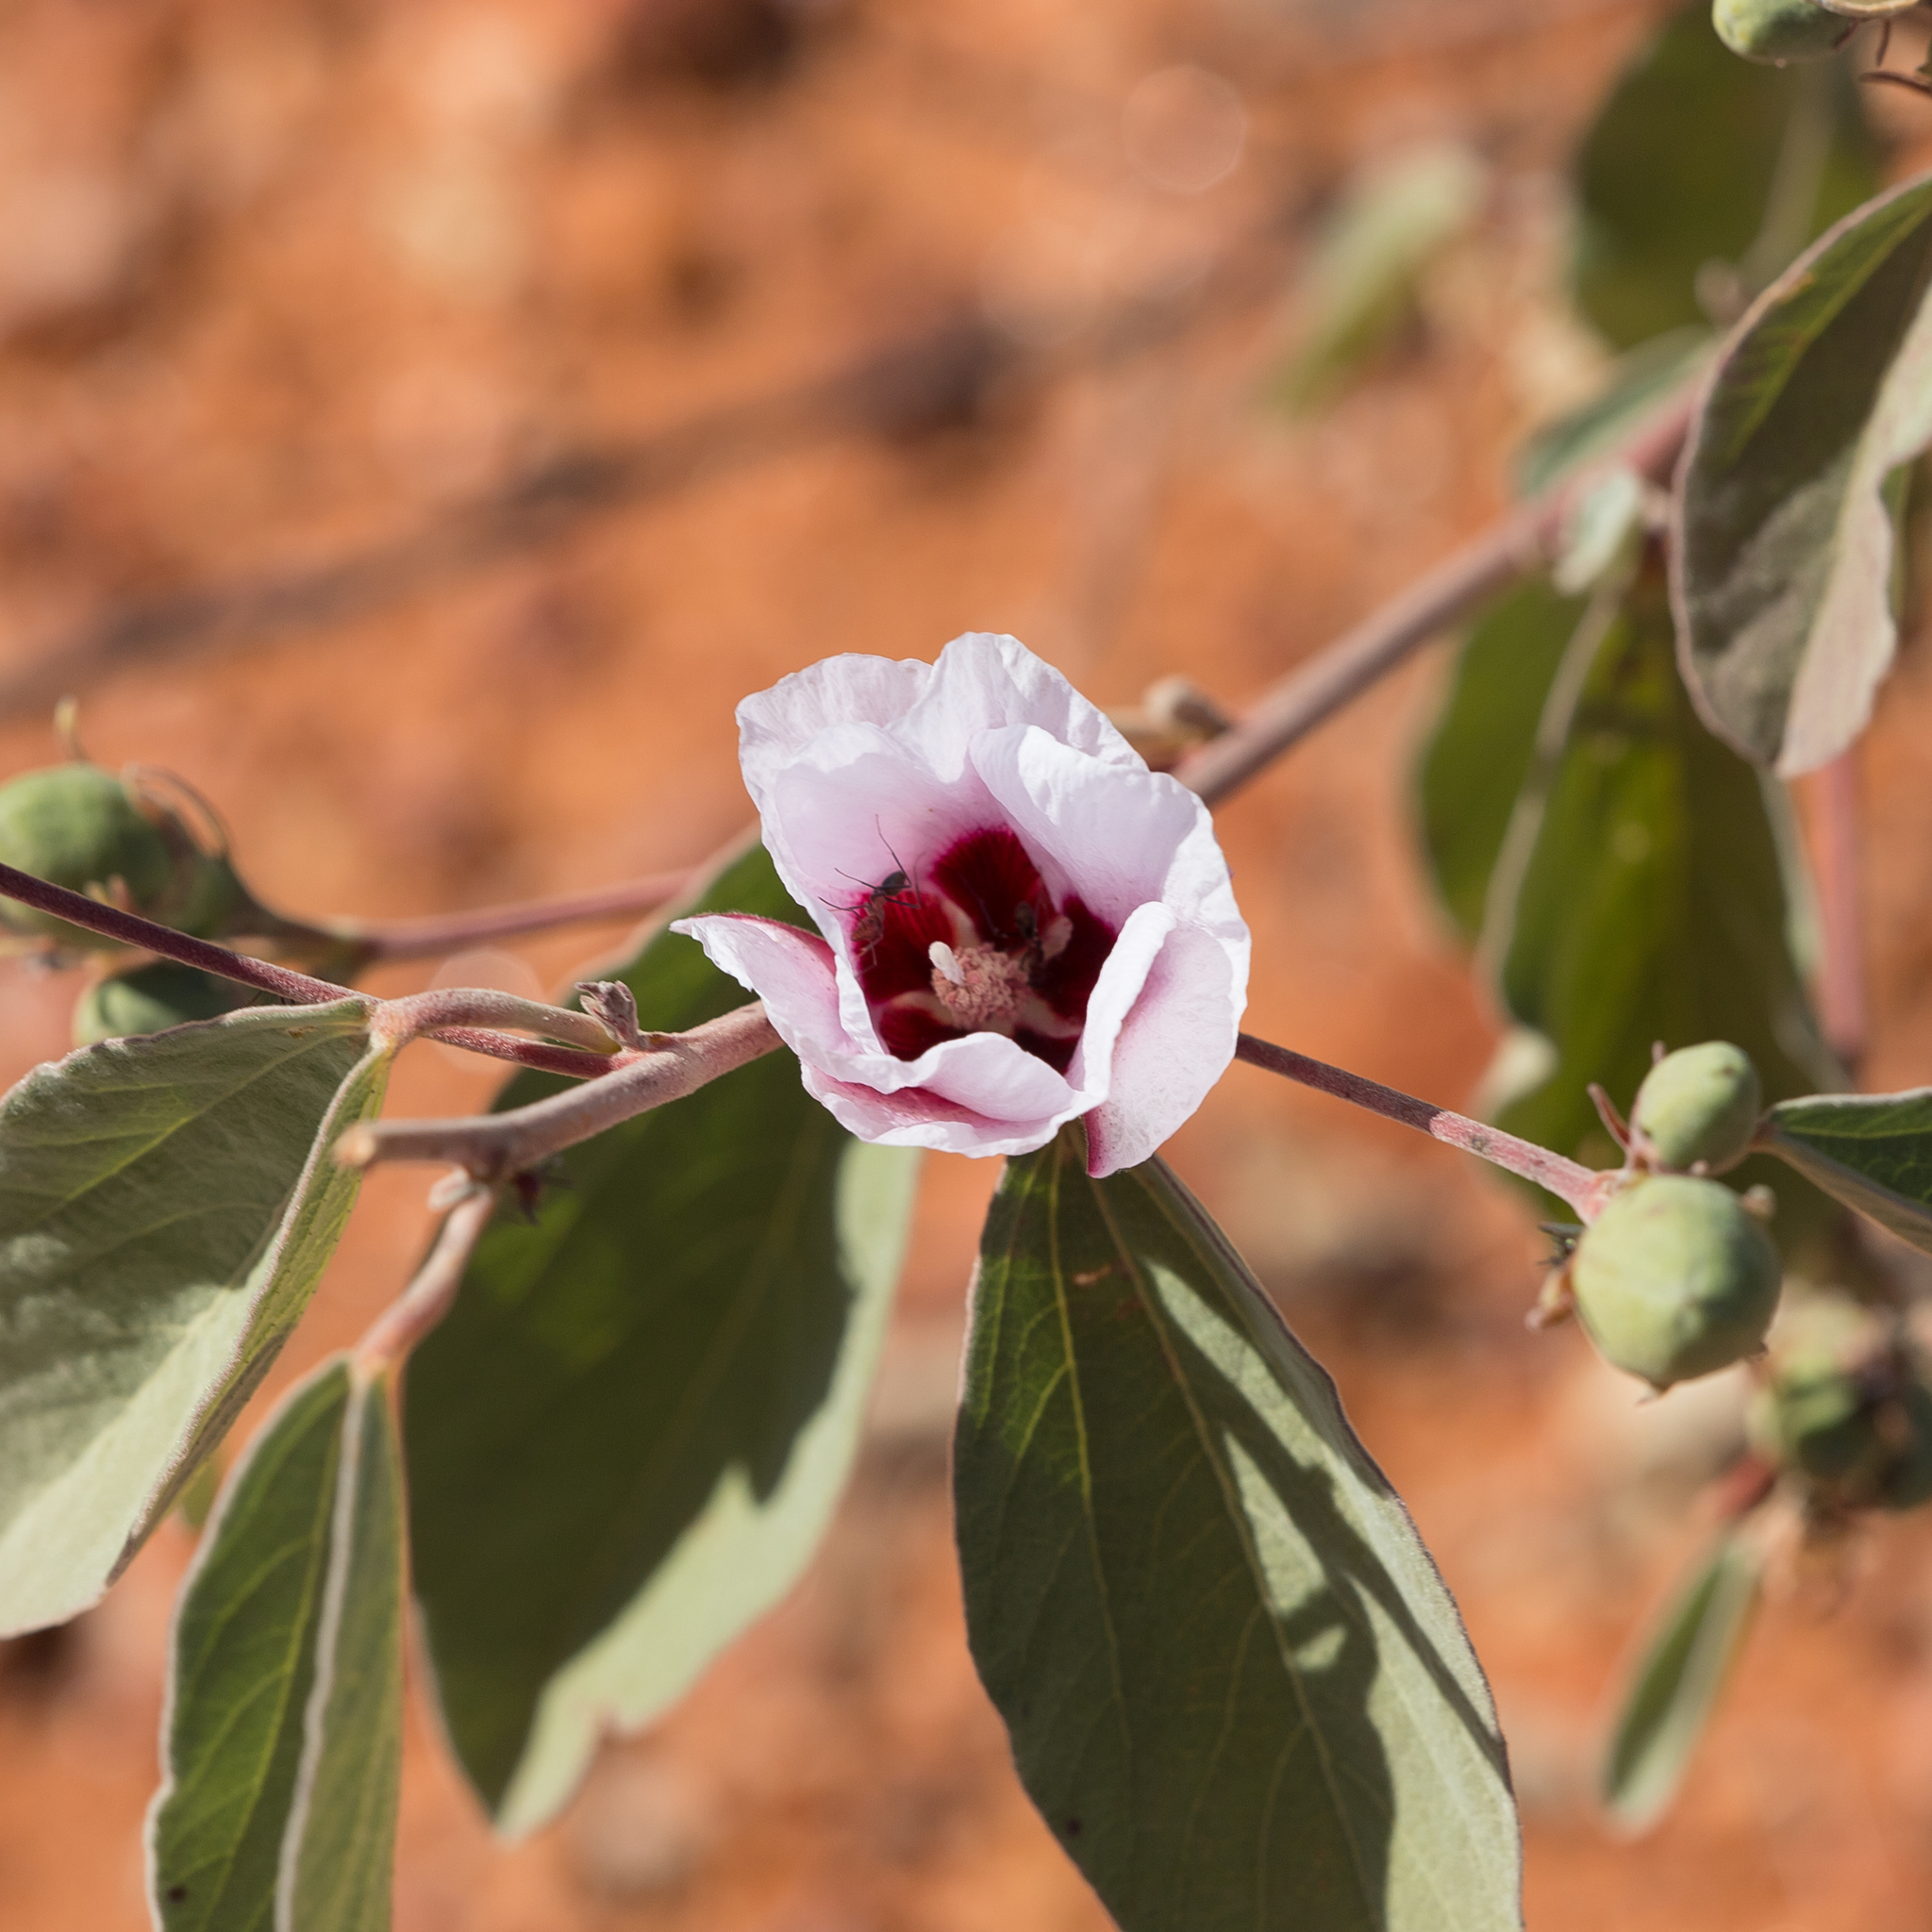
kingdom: Plantae
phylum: Tracheophyta
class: Magnoliopsida
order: Malvales
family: Malvaceae
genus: Cienfuegosia
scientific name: Cienfuegosia australis
